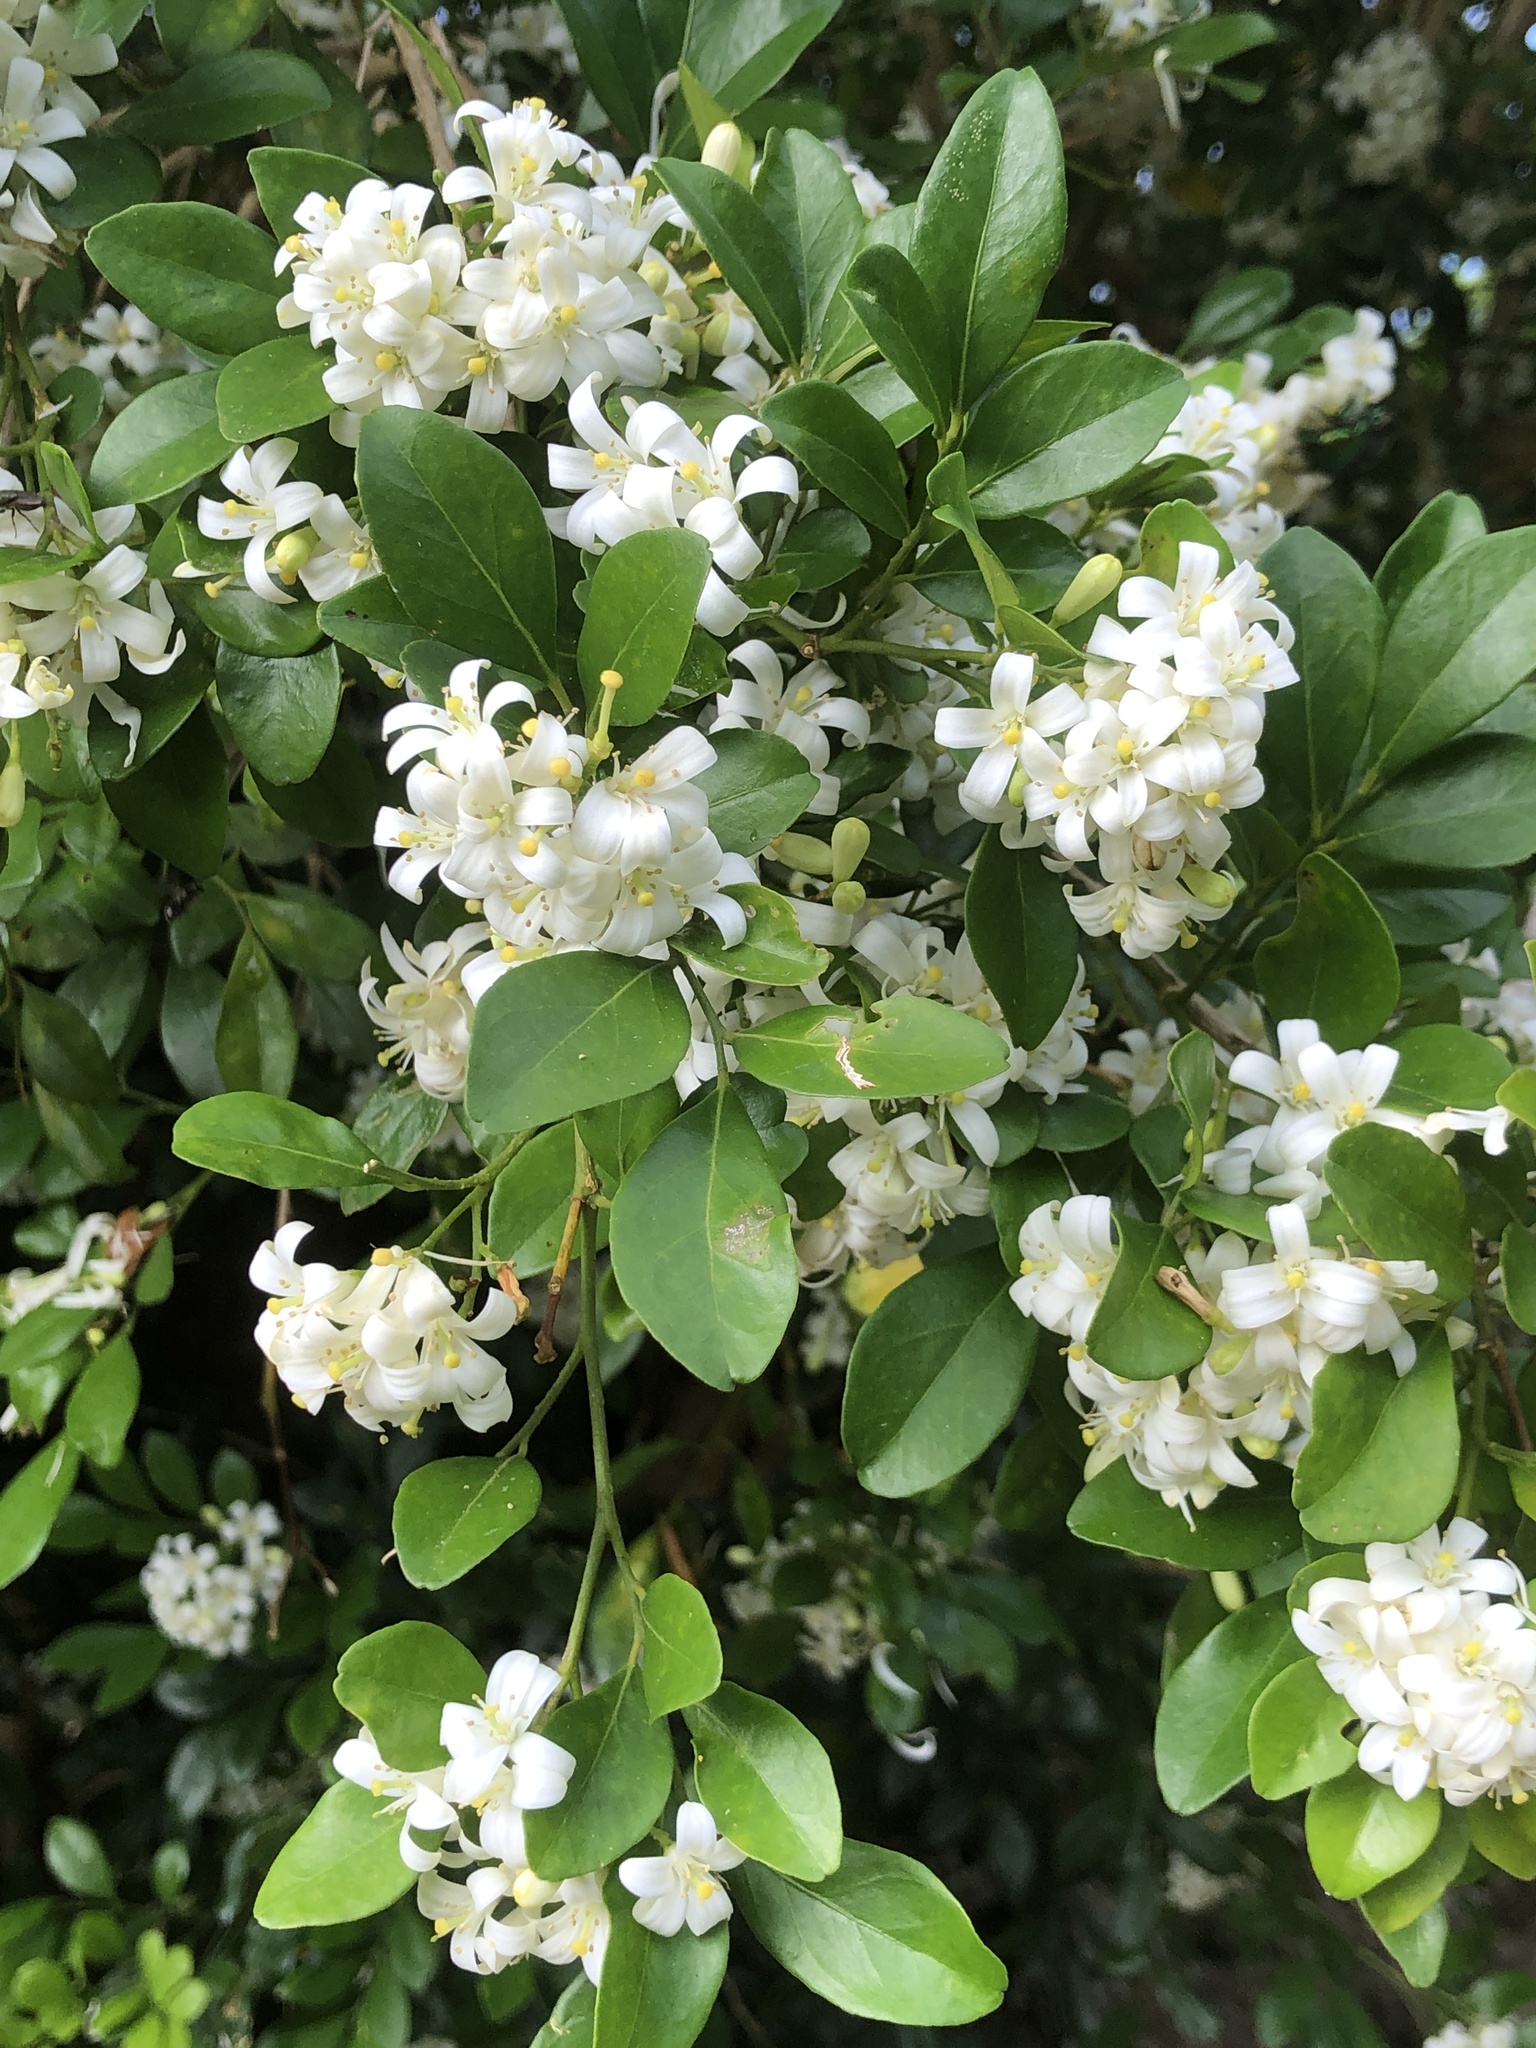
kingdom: Plantae
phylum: Tracheophyta
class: Magnoliopsida
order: Sapindales
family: Rutaceae
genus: Murraya
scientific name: Murraya paniculata
